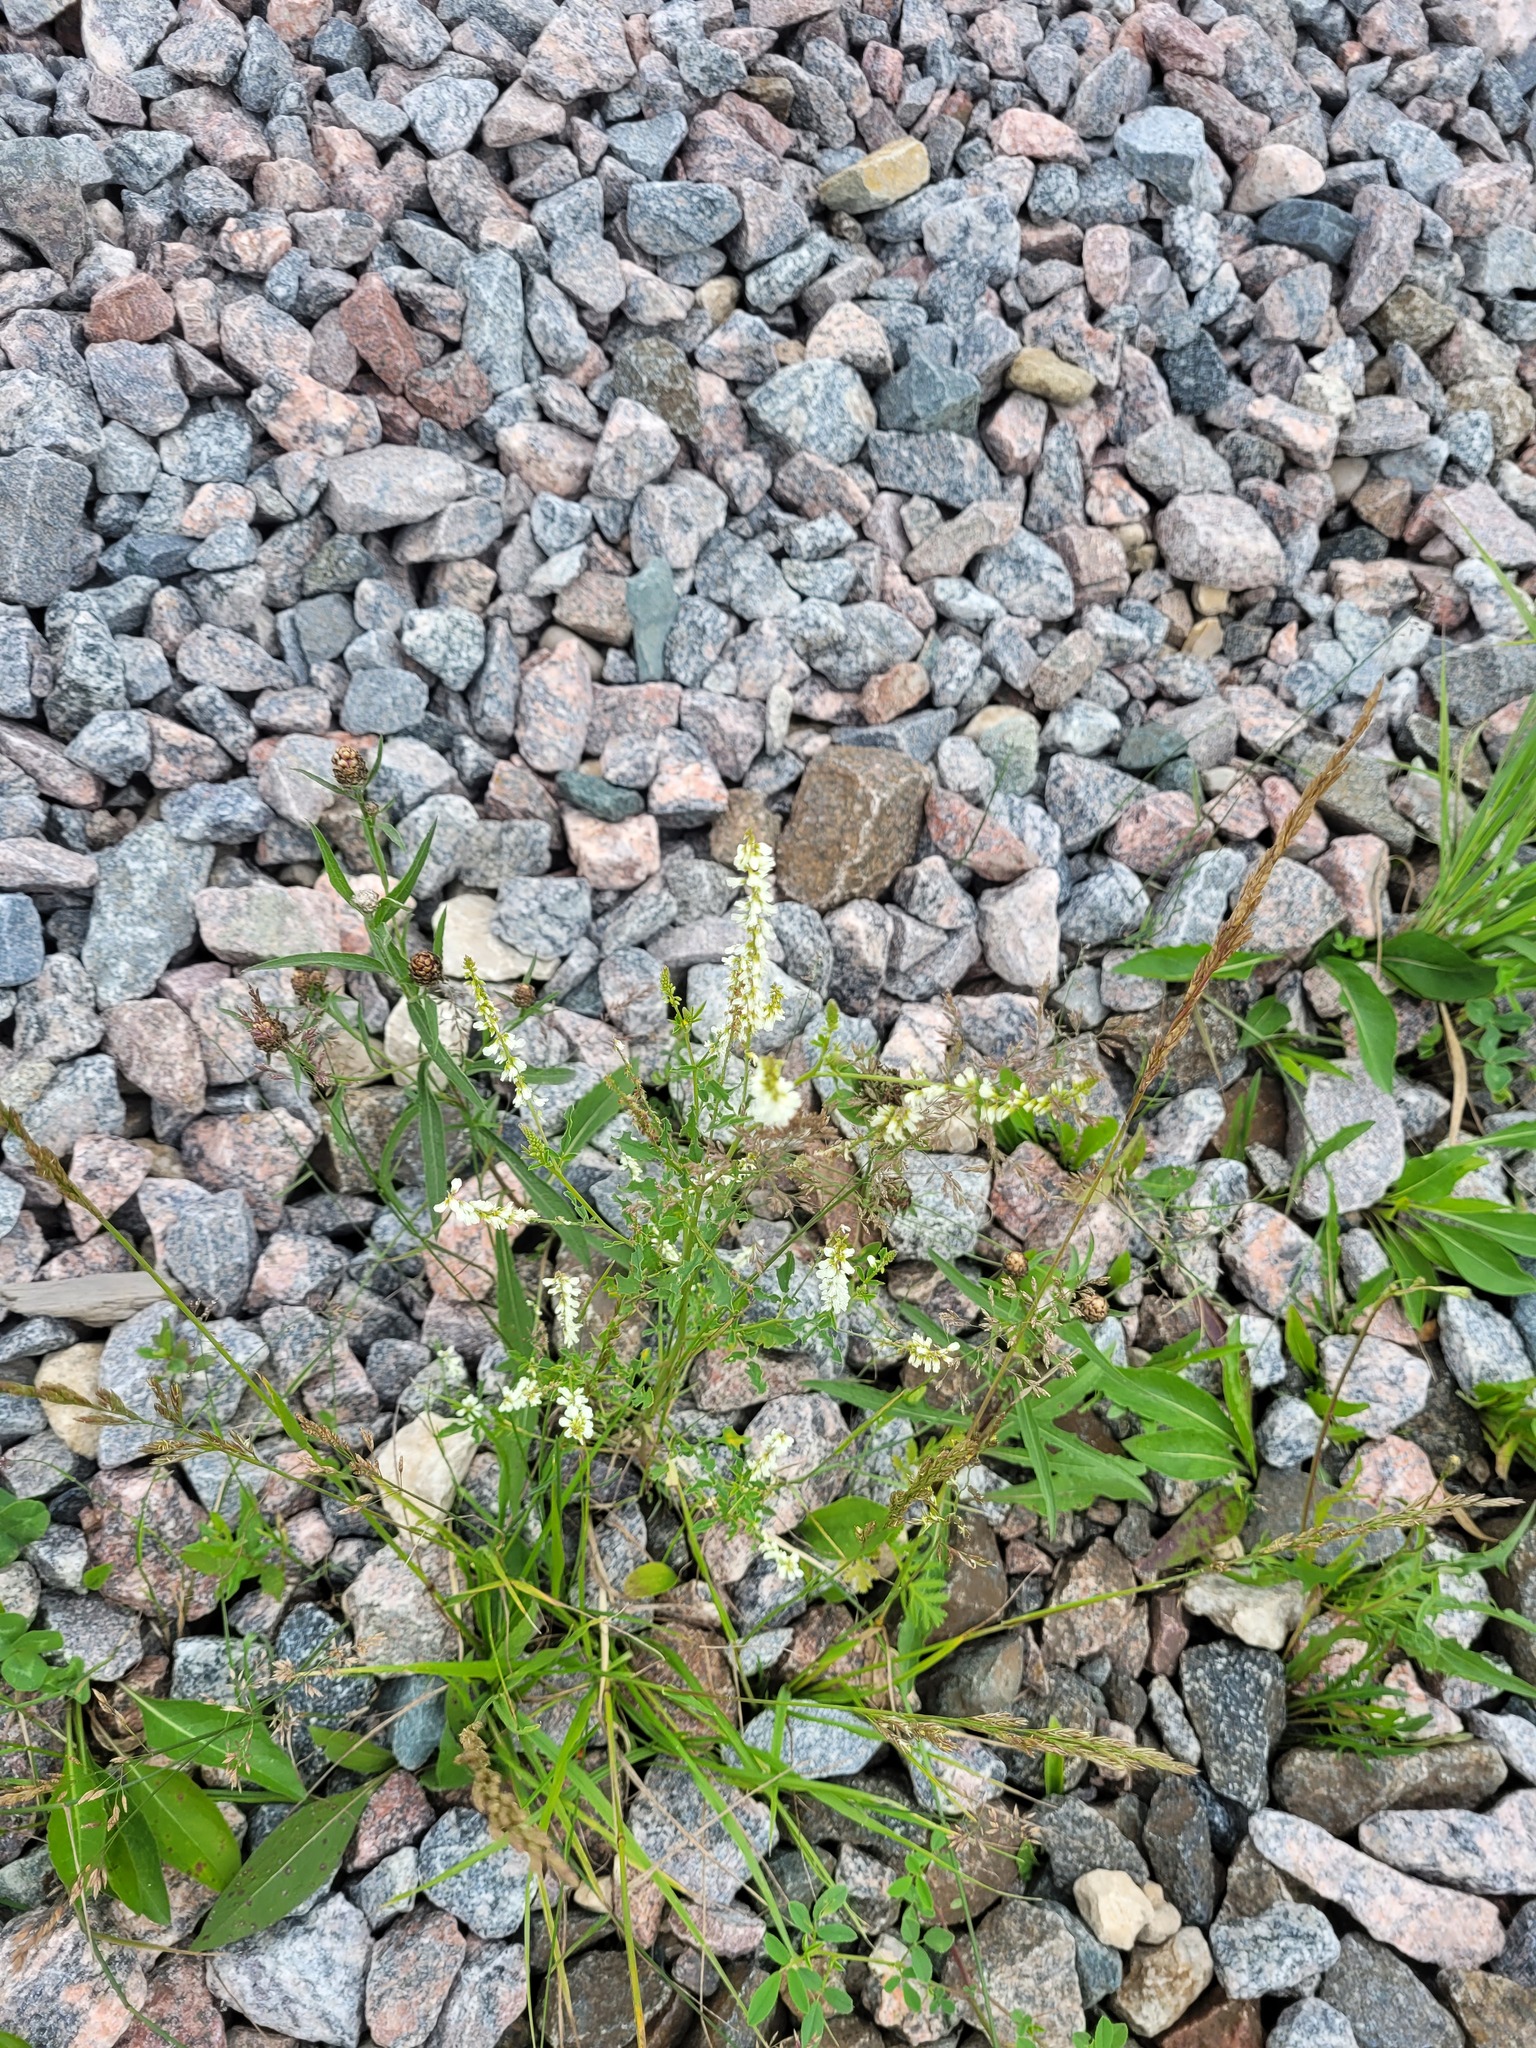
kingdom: Plantae
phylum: Tracheophyta
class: Magnoliopsida
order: Fabales
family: Fabaceae
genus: Melilotus
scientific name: Melilotus albus
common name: White melilot
